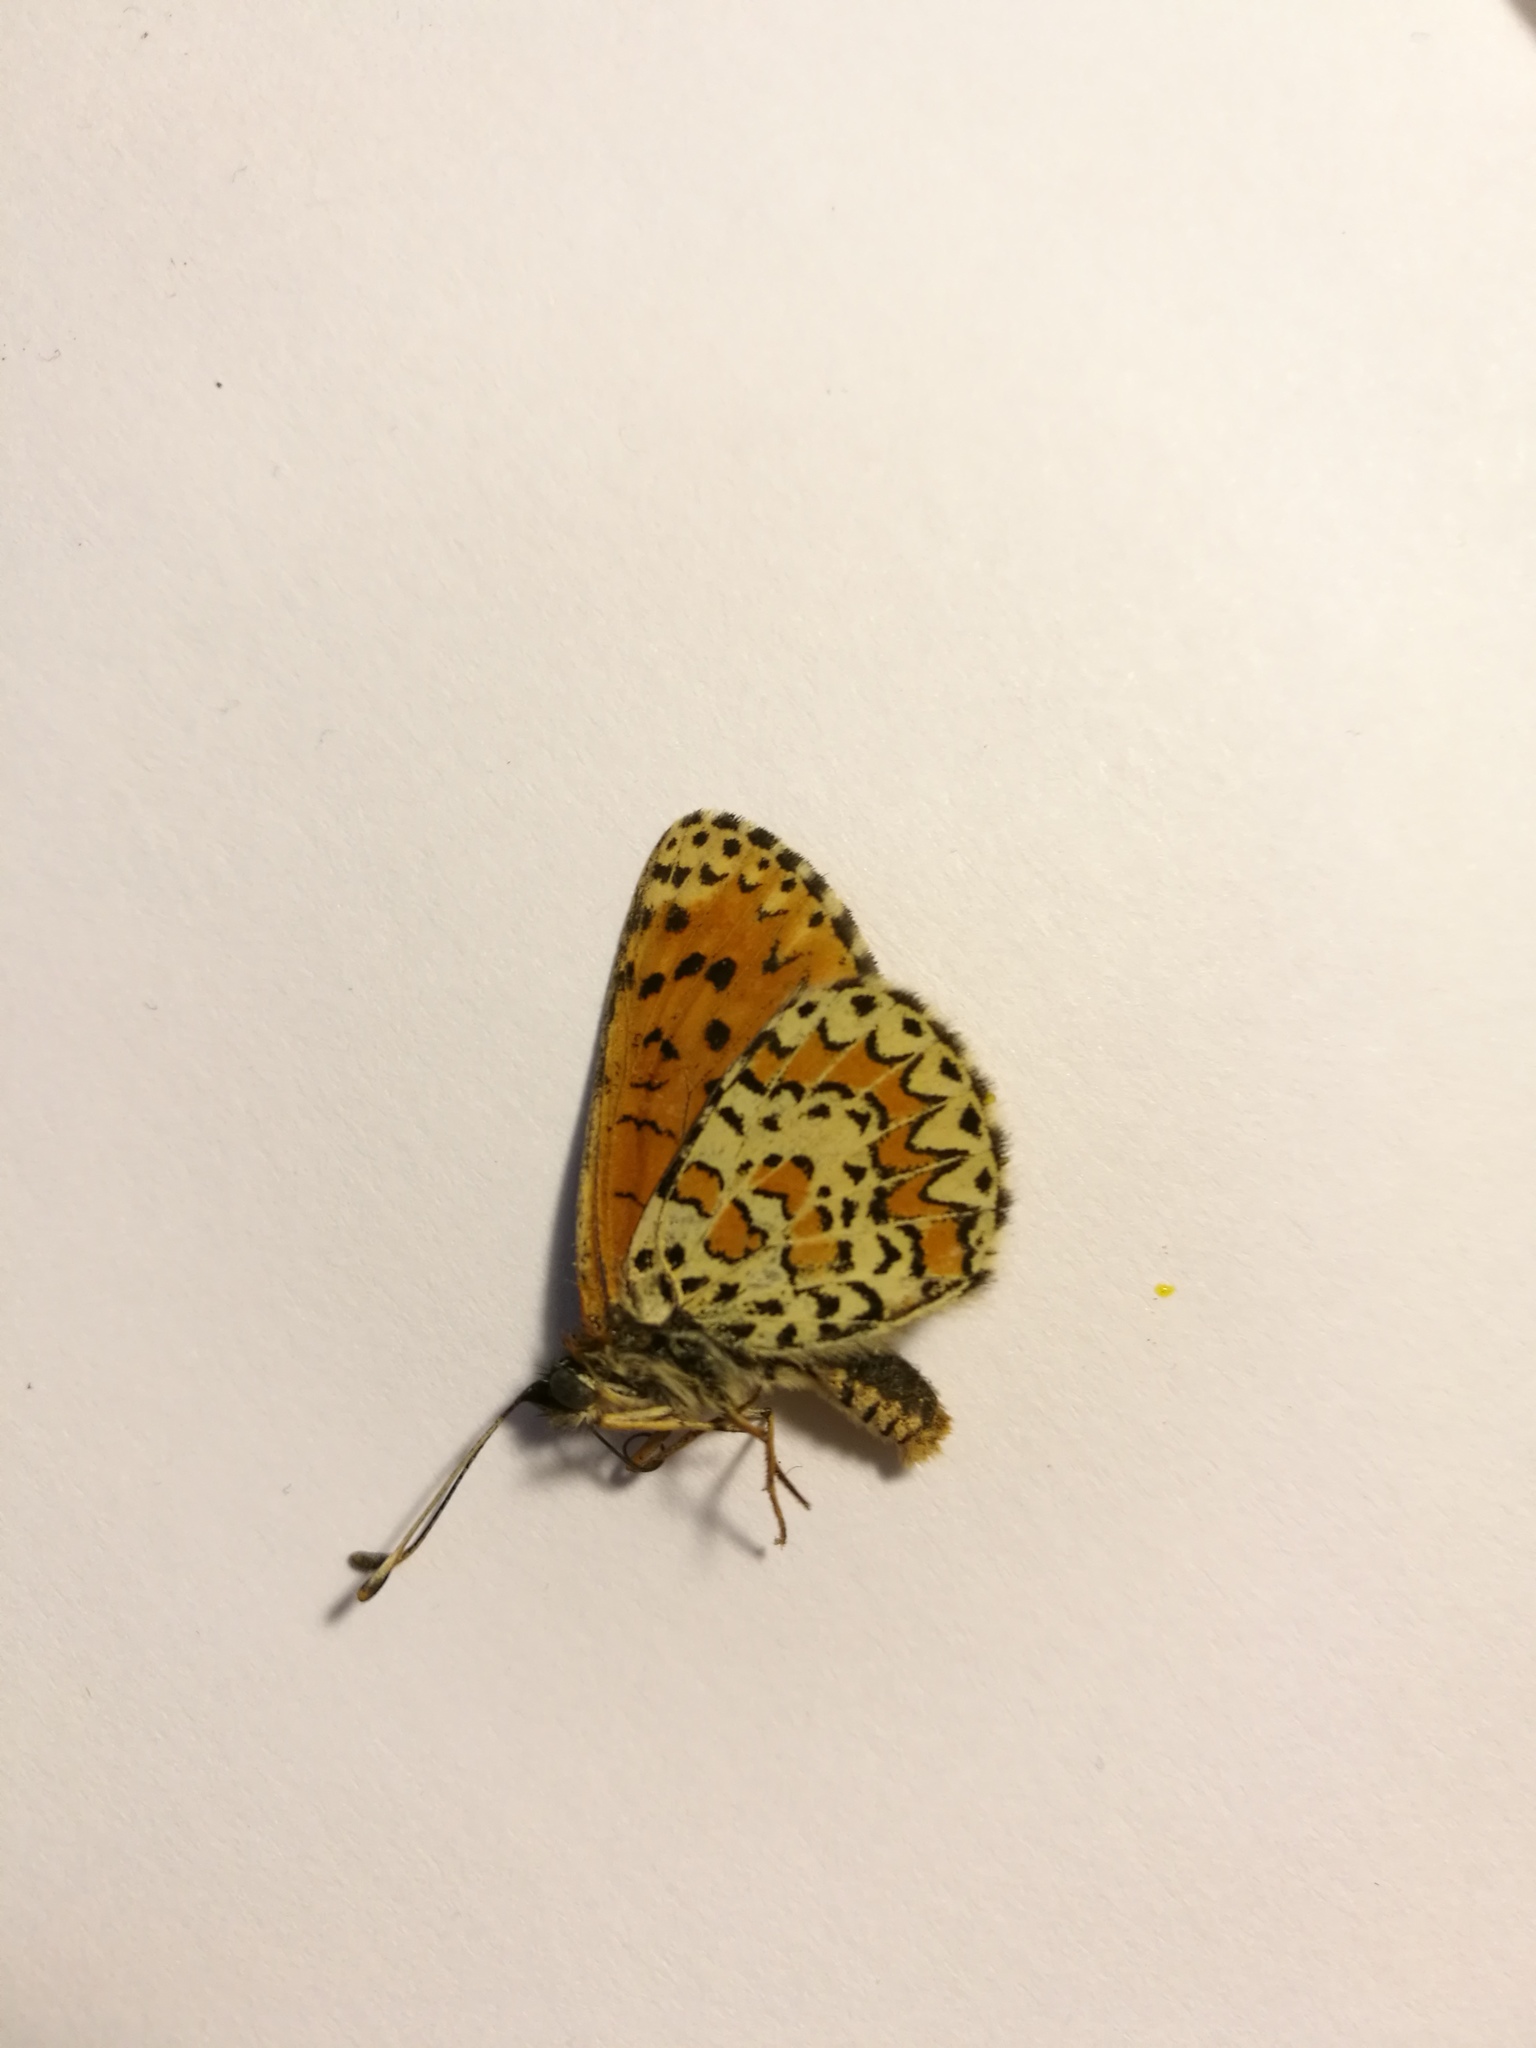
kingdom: Animalia
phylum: Arthropoda
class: Insecta
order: Lepidoptera
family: Nymphalidae
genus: Melitaea
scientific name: Melitaea trivia
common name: Lesser spotted fritillary
